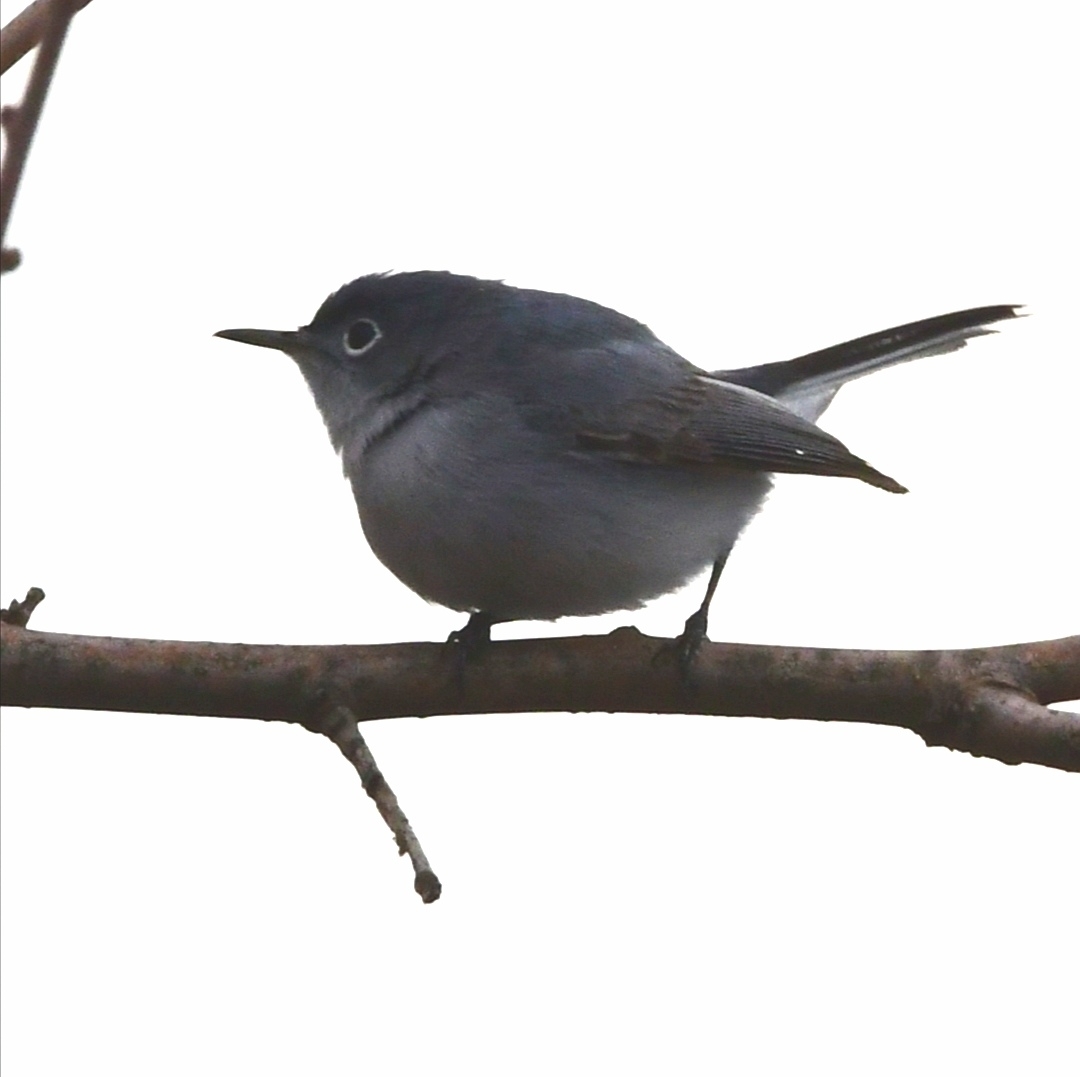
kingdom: Animalia
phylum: Chordata
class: Aves
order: Passeriformes
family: Polioptilidae
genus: Polioptila
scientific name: Polioptila caerulea
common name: Blue-gray gnatcatcher
